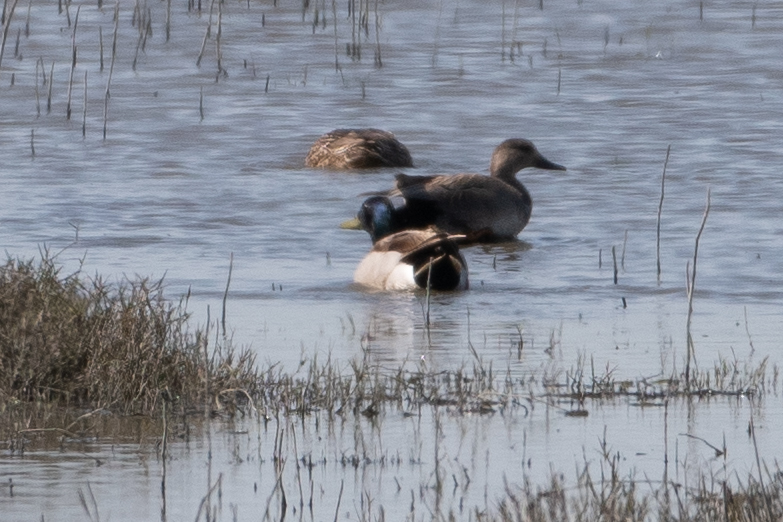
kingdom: Animalia
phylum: Chordata
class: Aves
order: Anseriformes
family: Anatidae
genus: Anas
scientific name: Anas platyrhynchos
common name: Mallard
